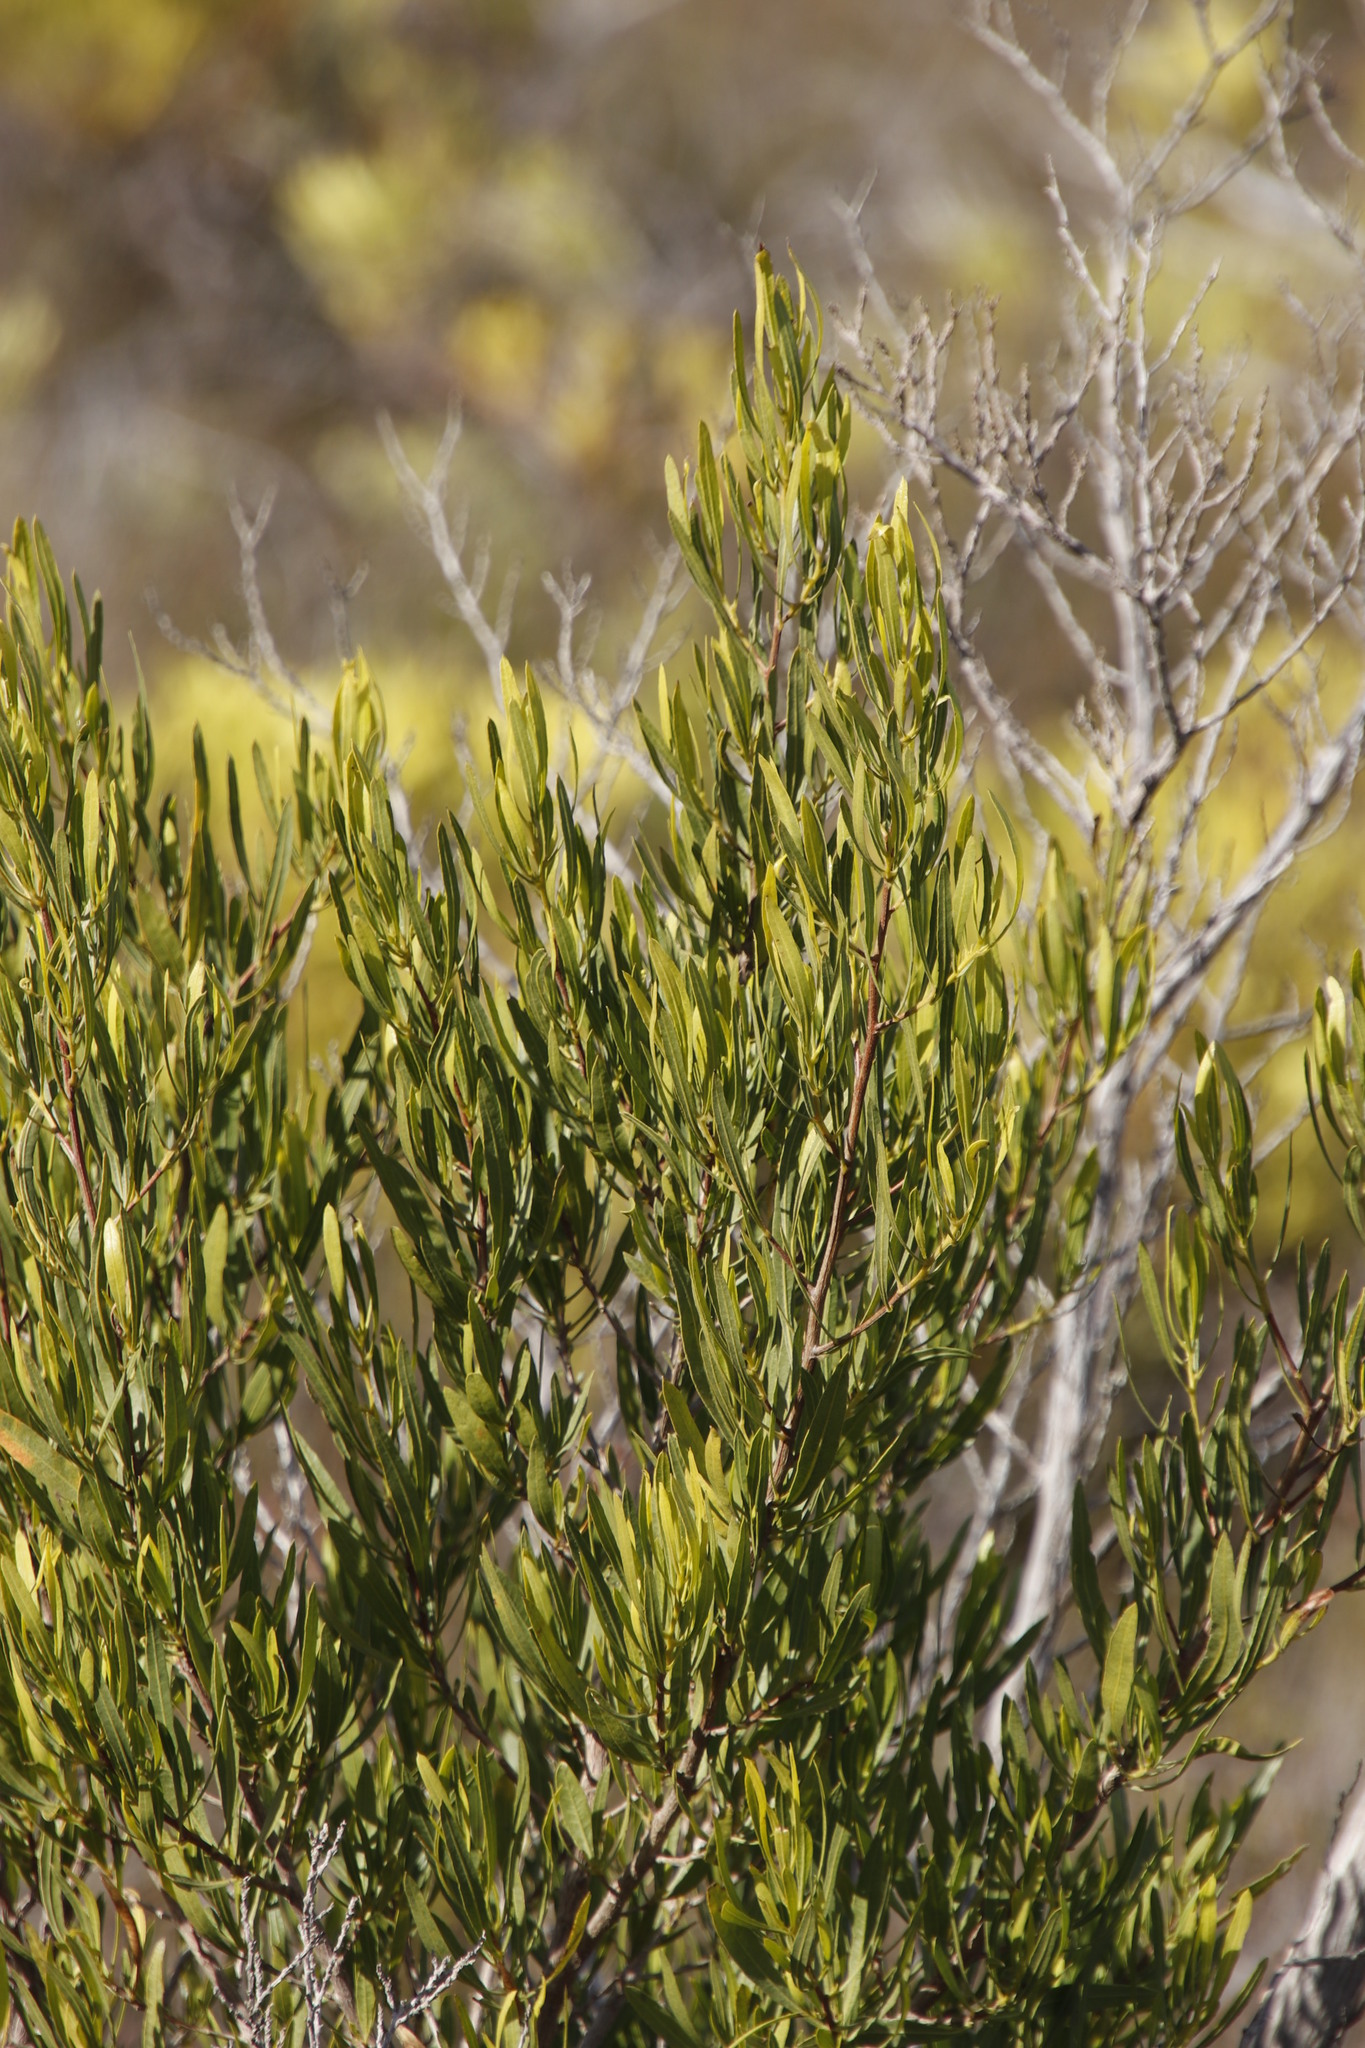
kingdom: Plantae
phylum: Tracheophyta
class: Magnoliopsida
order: Sapindales
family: Sapindaceae
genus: Dodonaea
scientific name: Dodonaea viscosa
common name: Hopbush
